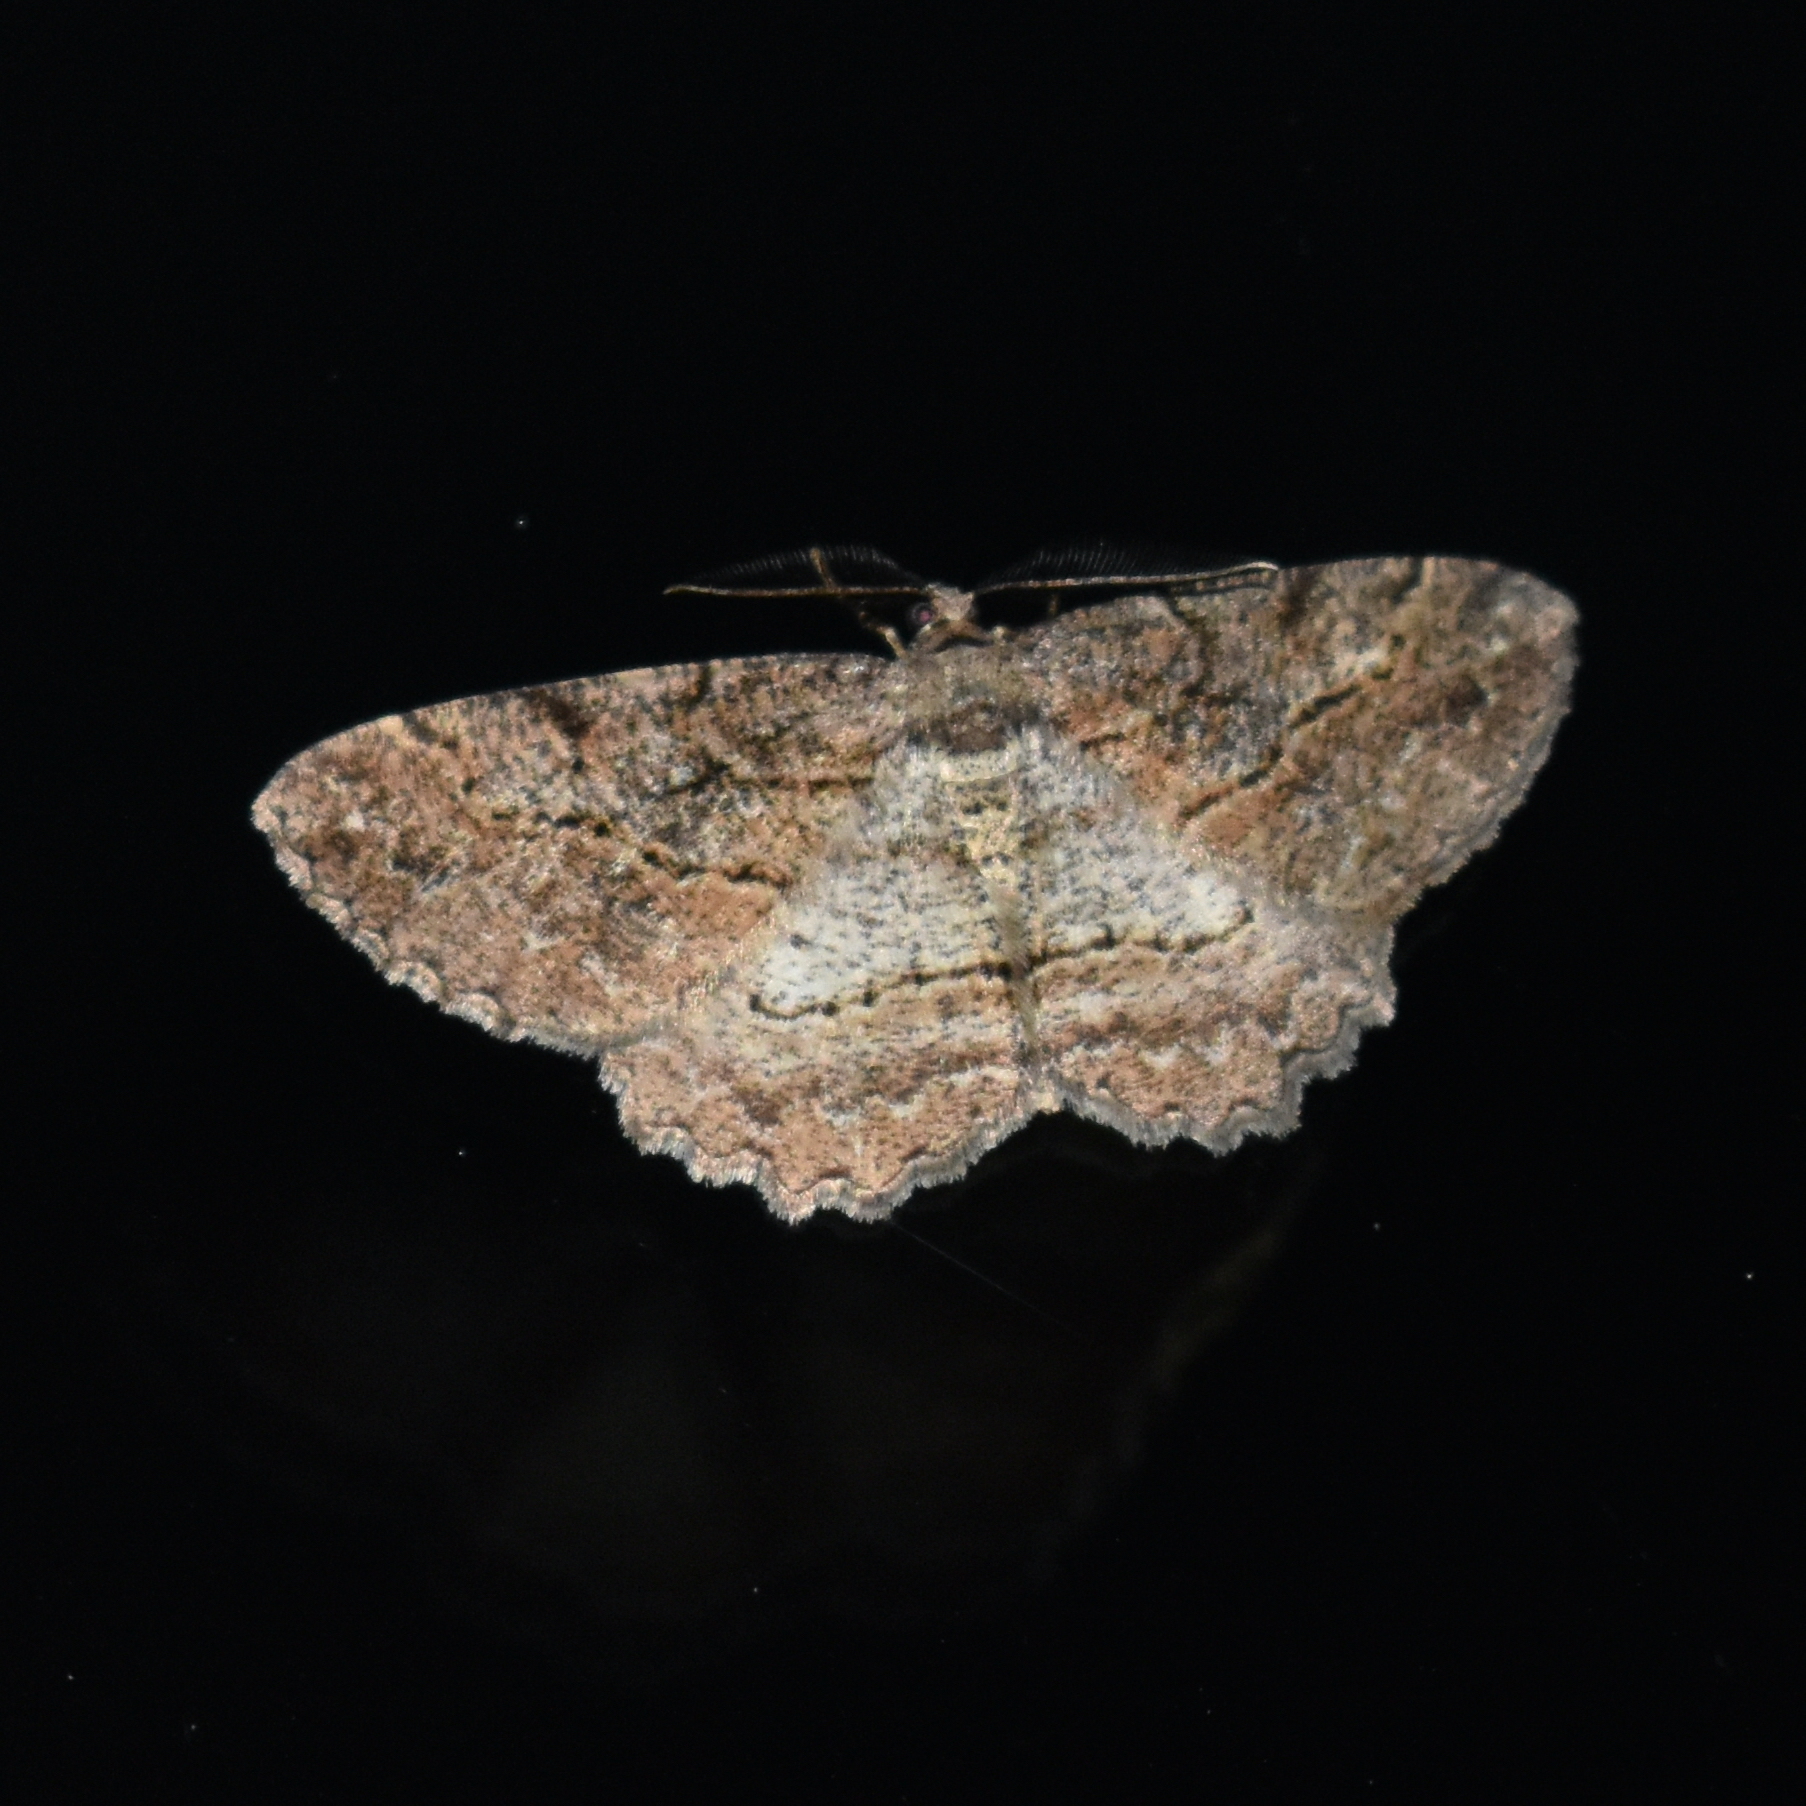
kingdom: Animalia
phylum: Arthropoda
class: Insecta
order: Lepidoptera
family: Geometridae
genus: Neoalcis
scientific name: Neoalcis californiaria
